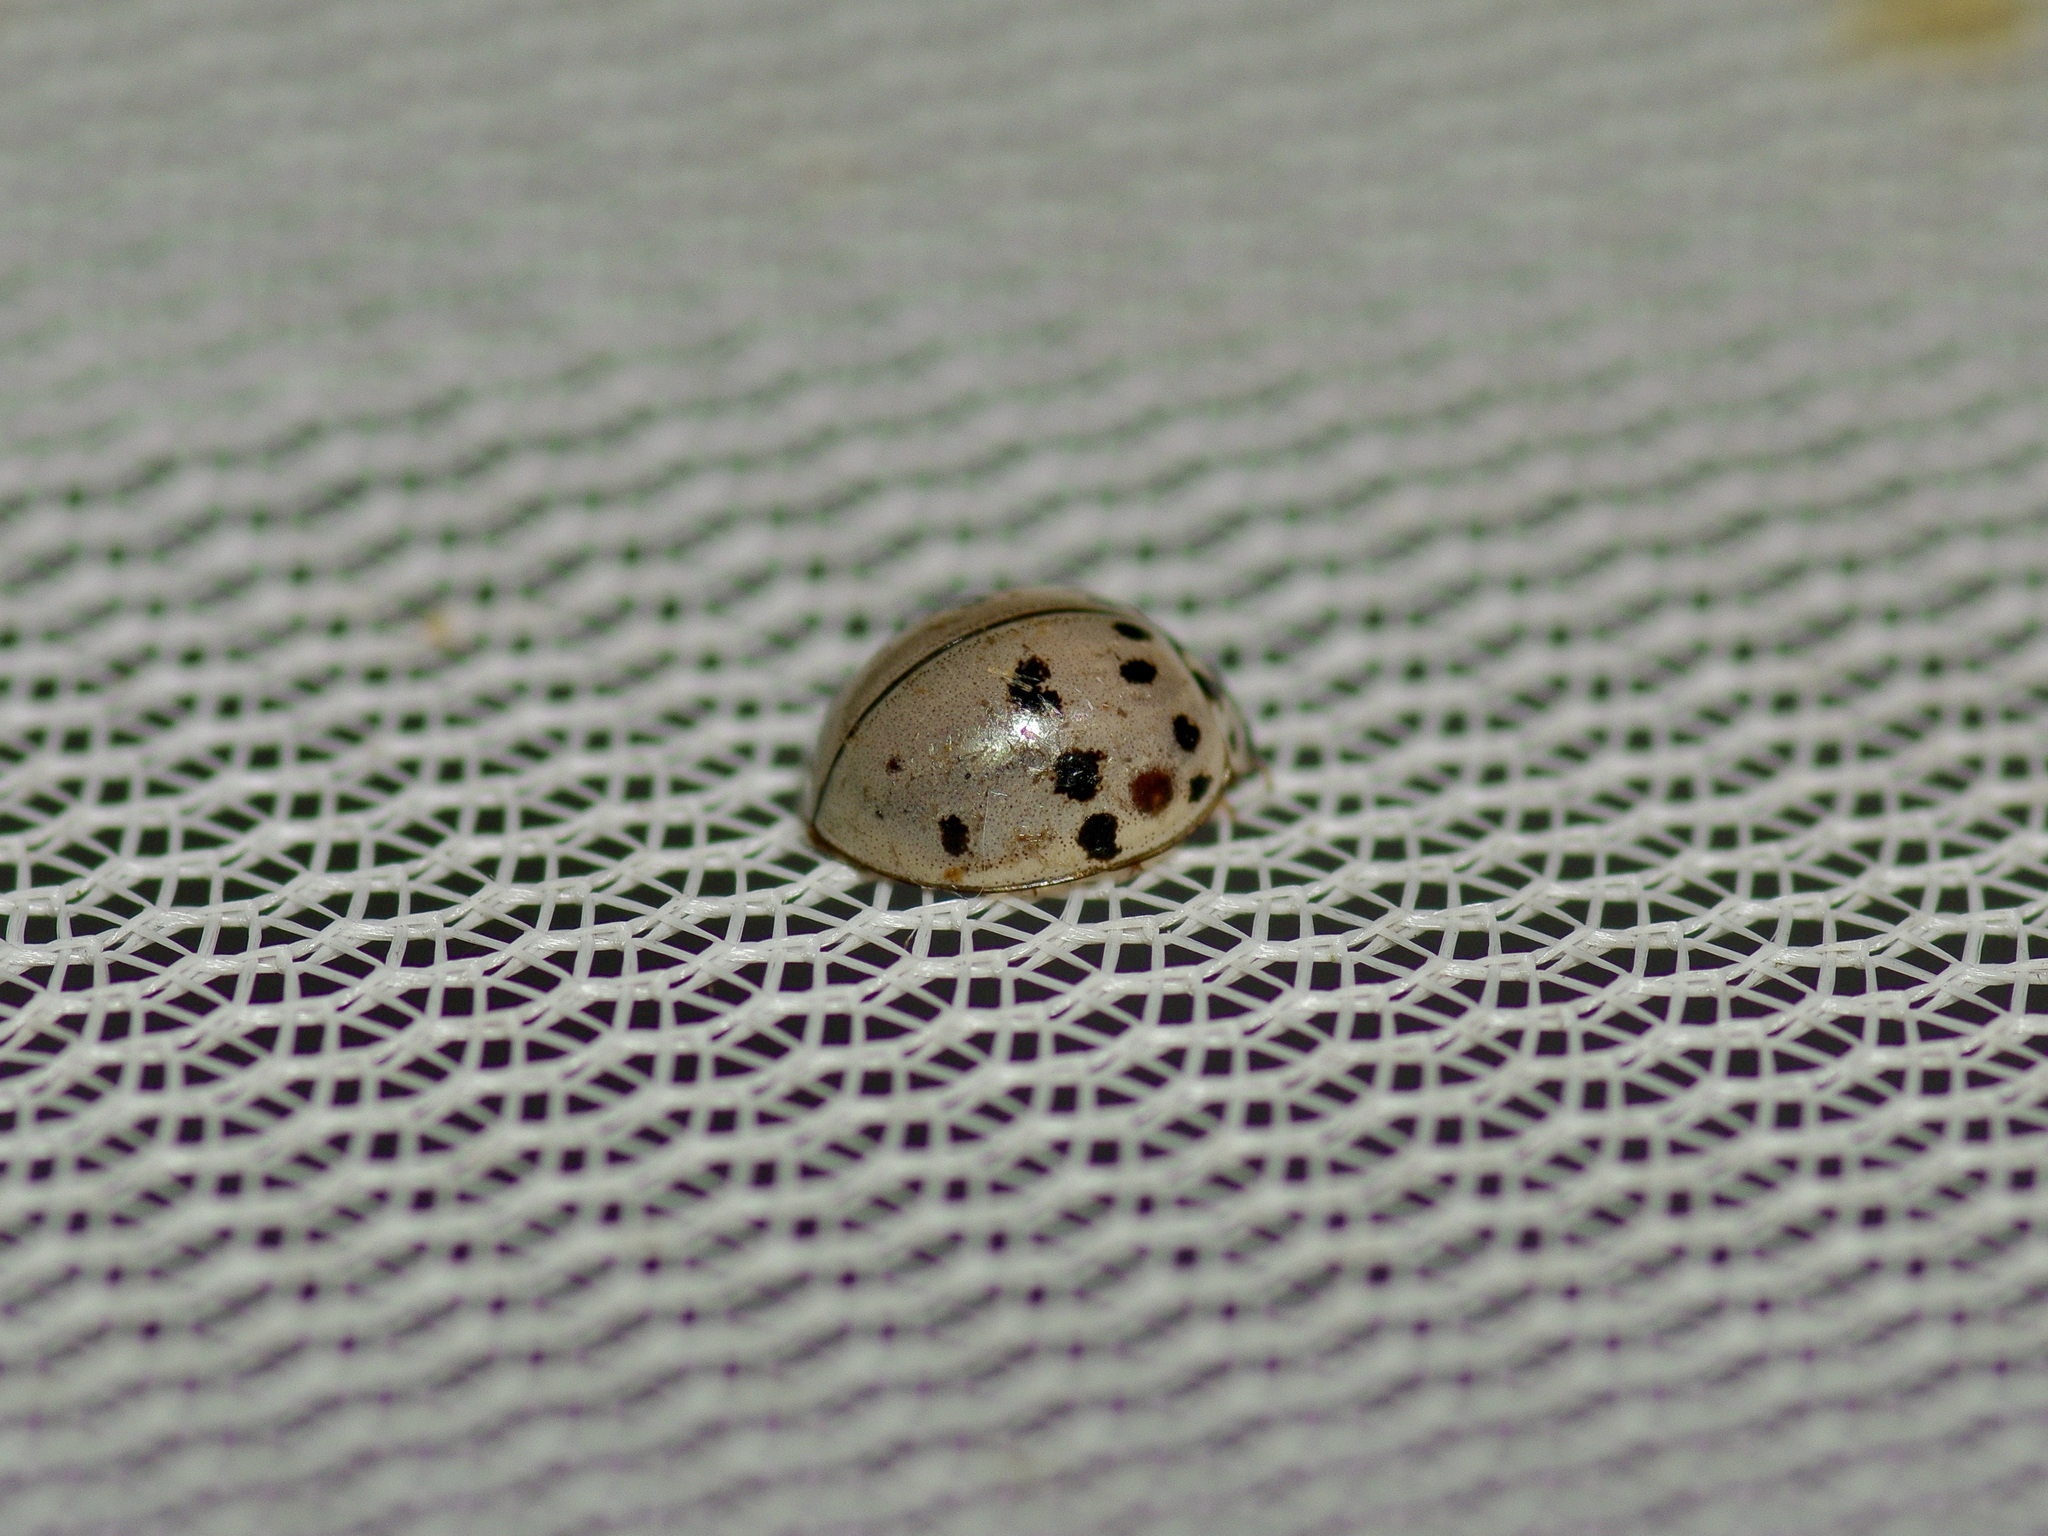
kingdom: Animalia
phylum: Arthropoda
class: Insecta
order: Coleoptera
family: Coccinellidae
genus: Olla
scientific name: Olla v-nigrum
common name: Ashy gray lady beetle
